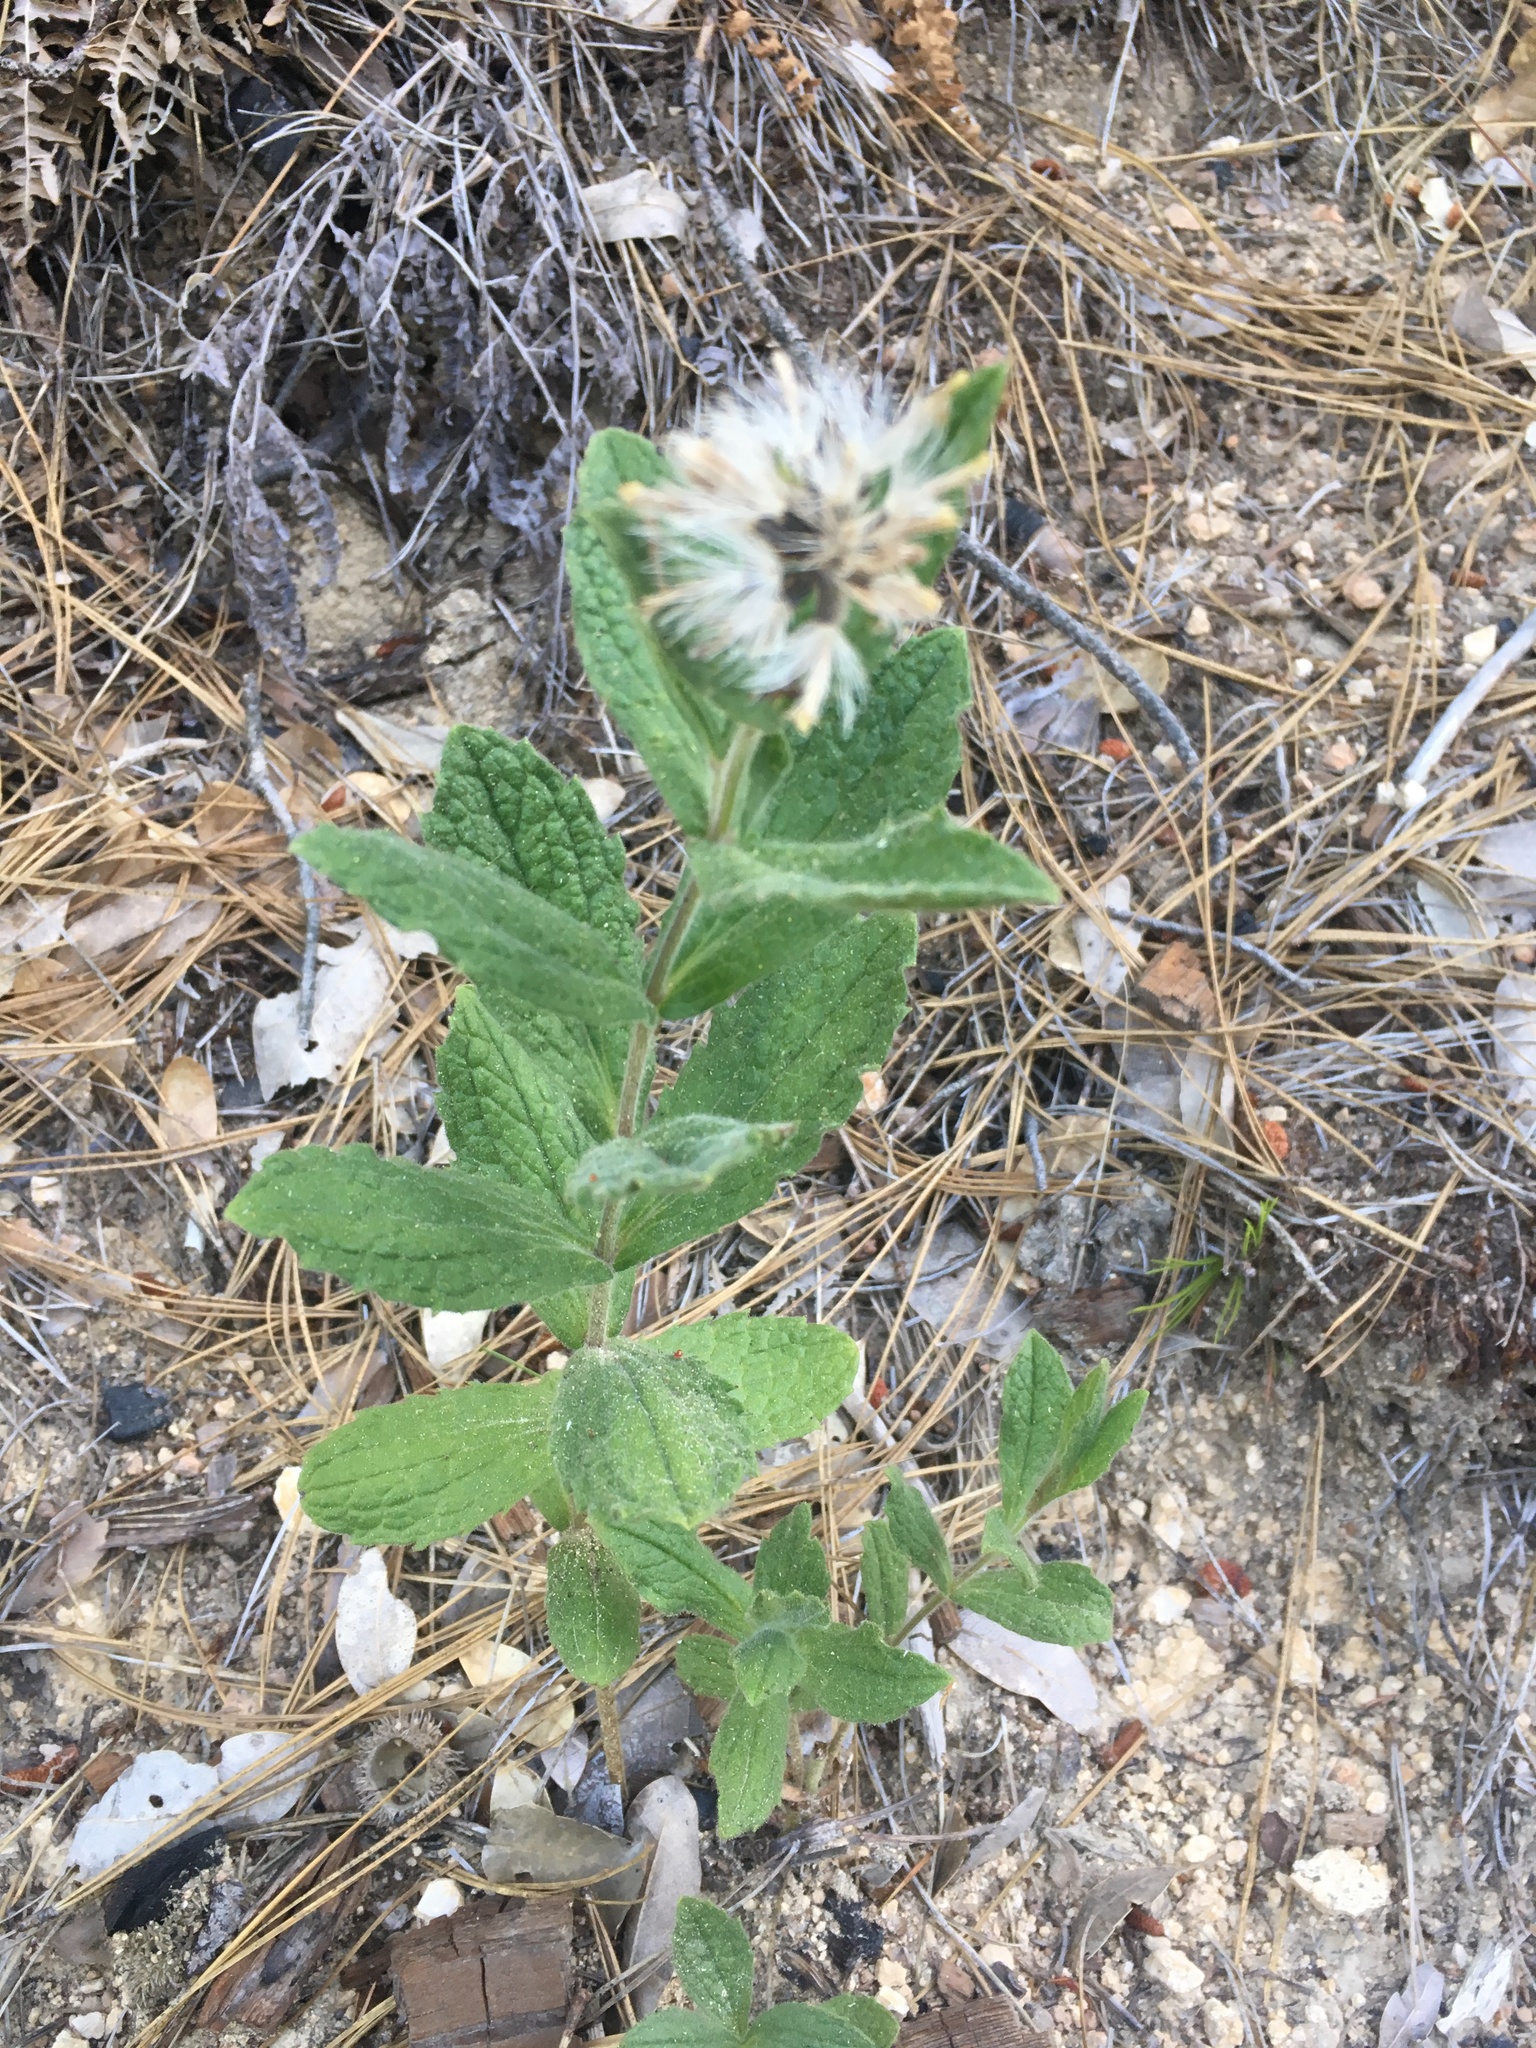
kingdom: Plantae
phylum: Tracheophyta
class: Magnoliopsida
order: Asterales
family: Asteraceae
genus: Arnica
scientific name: Arnica venosa
